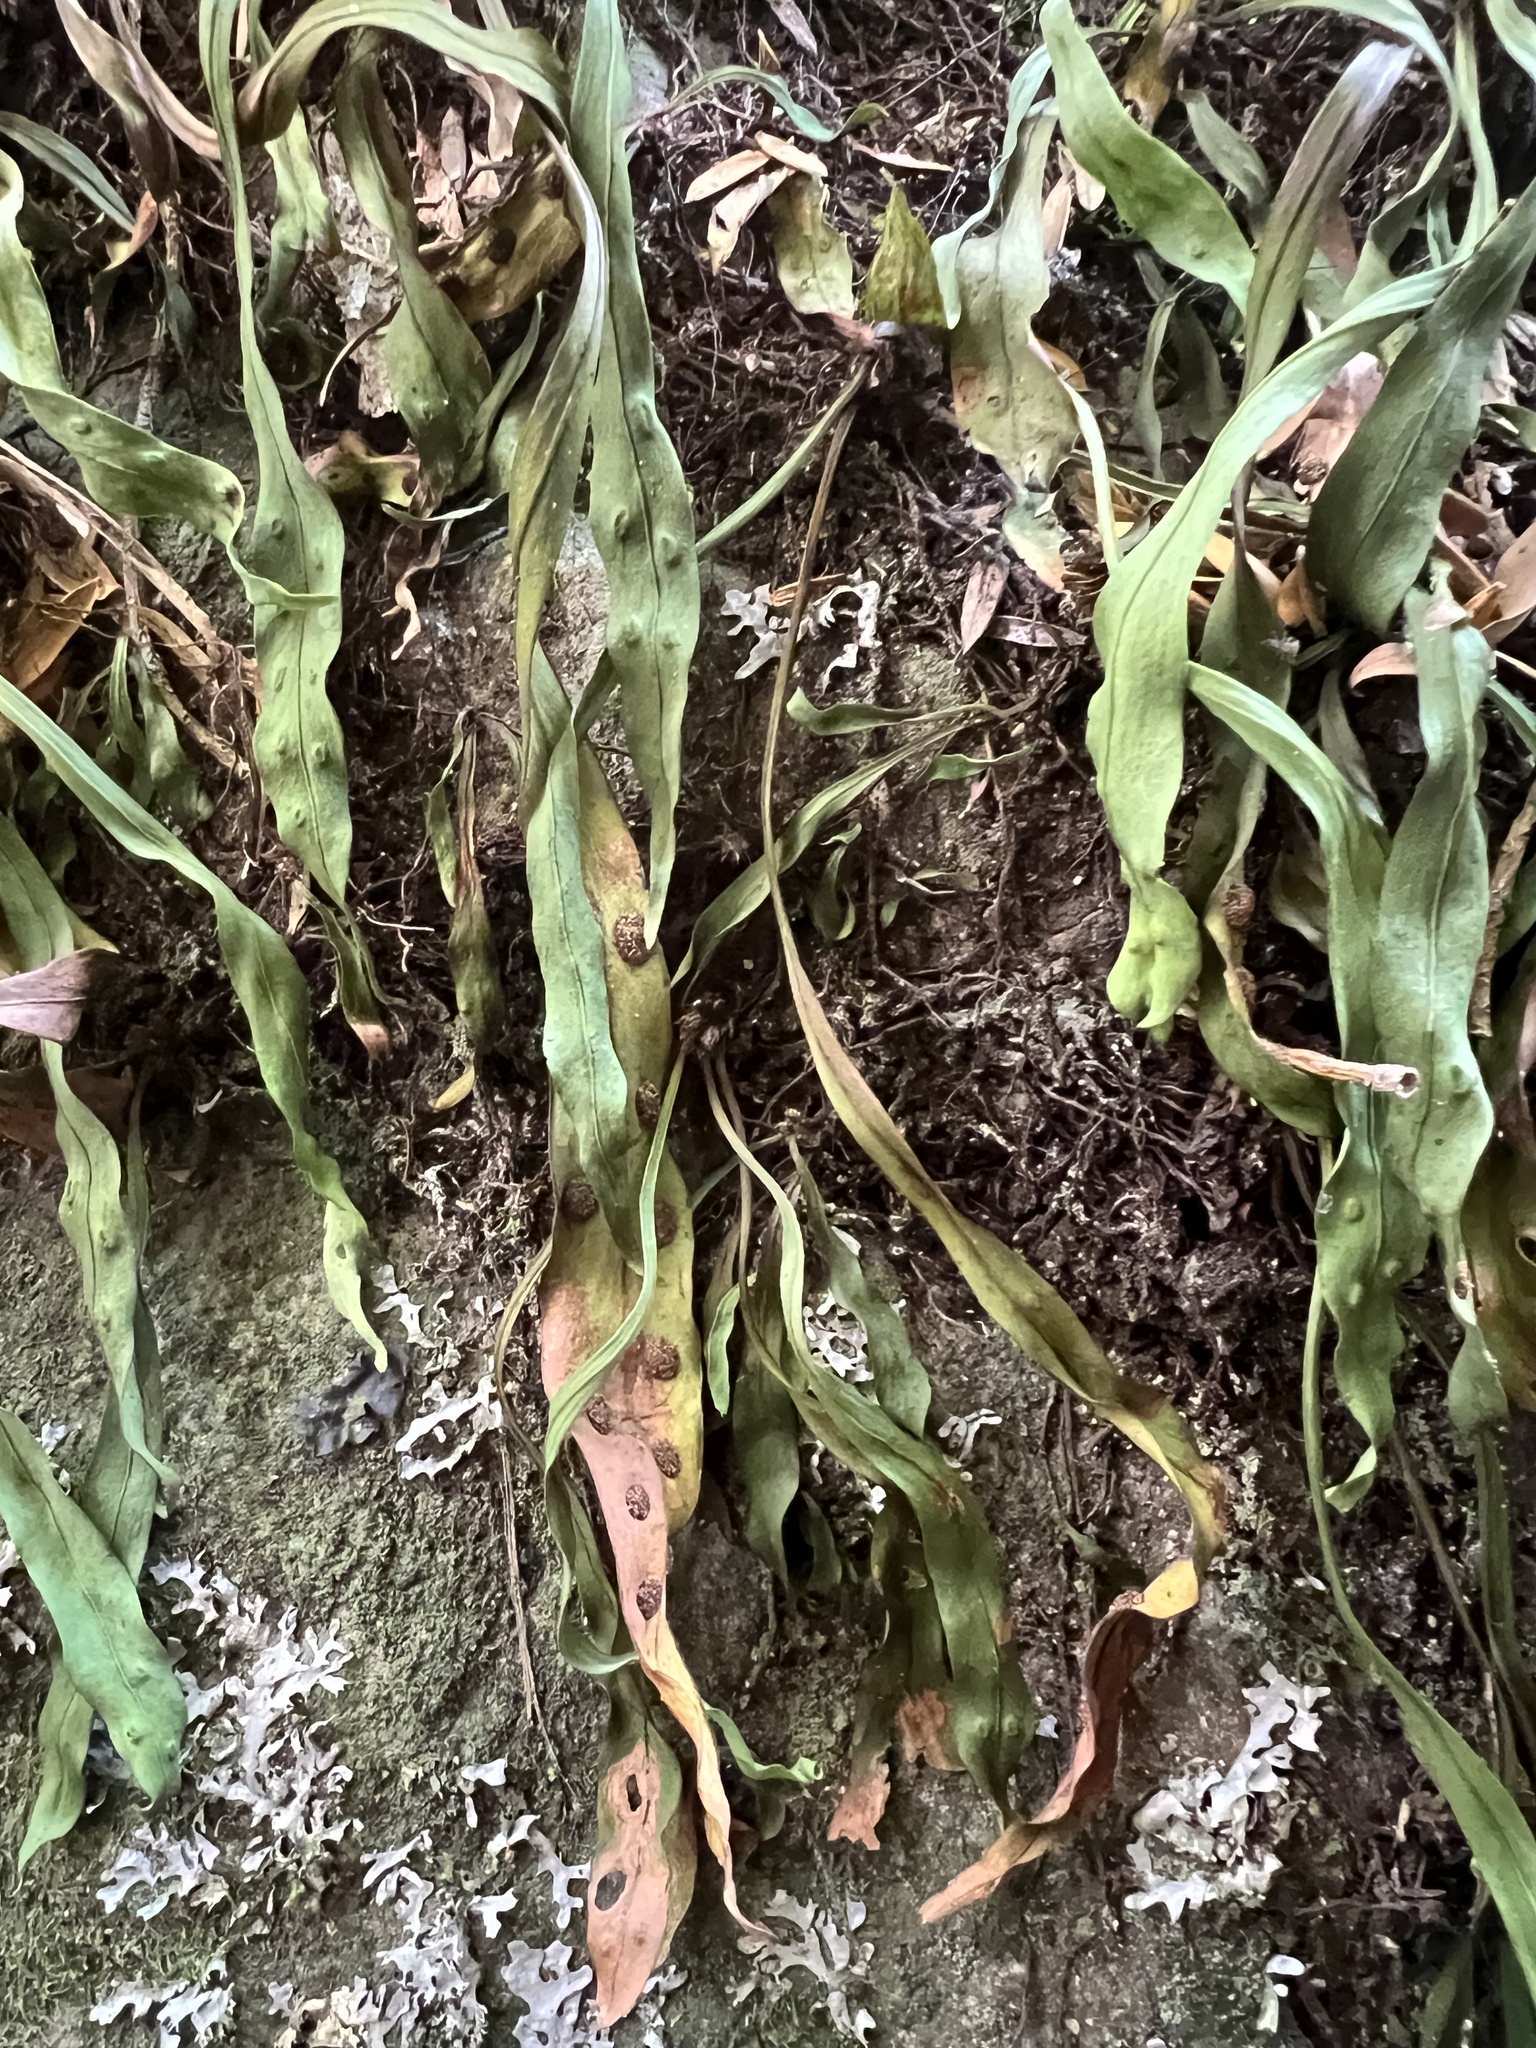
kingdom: Plantae
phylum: Tracheophyta
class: Polypodiopsida
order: Polypodiales
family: Polypodiaceae
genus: Loxogramme
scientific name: Loxogramme dictyopteris
